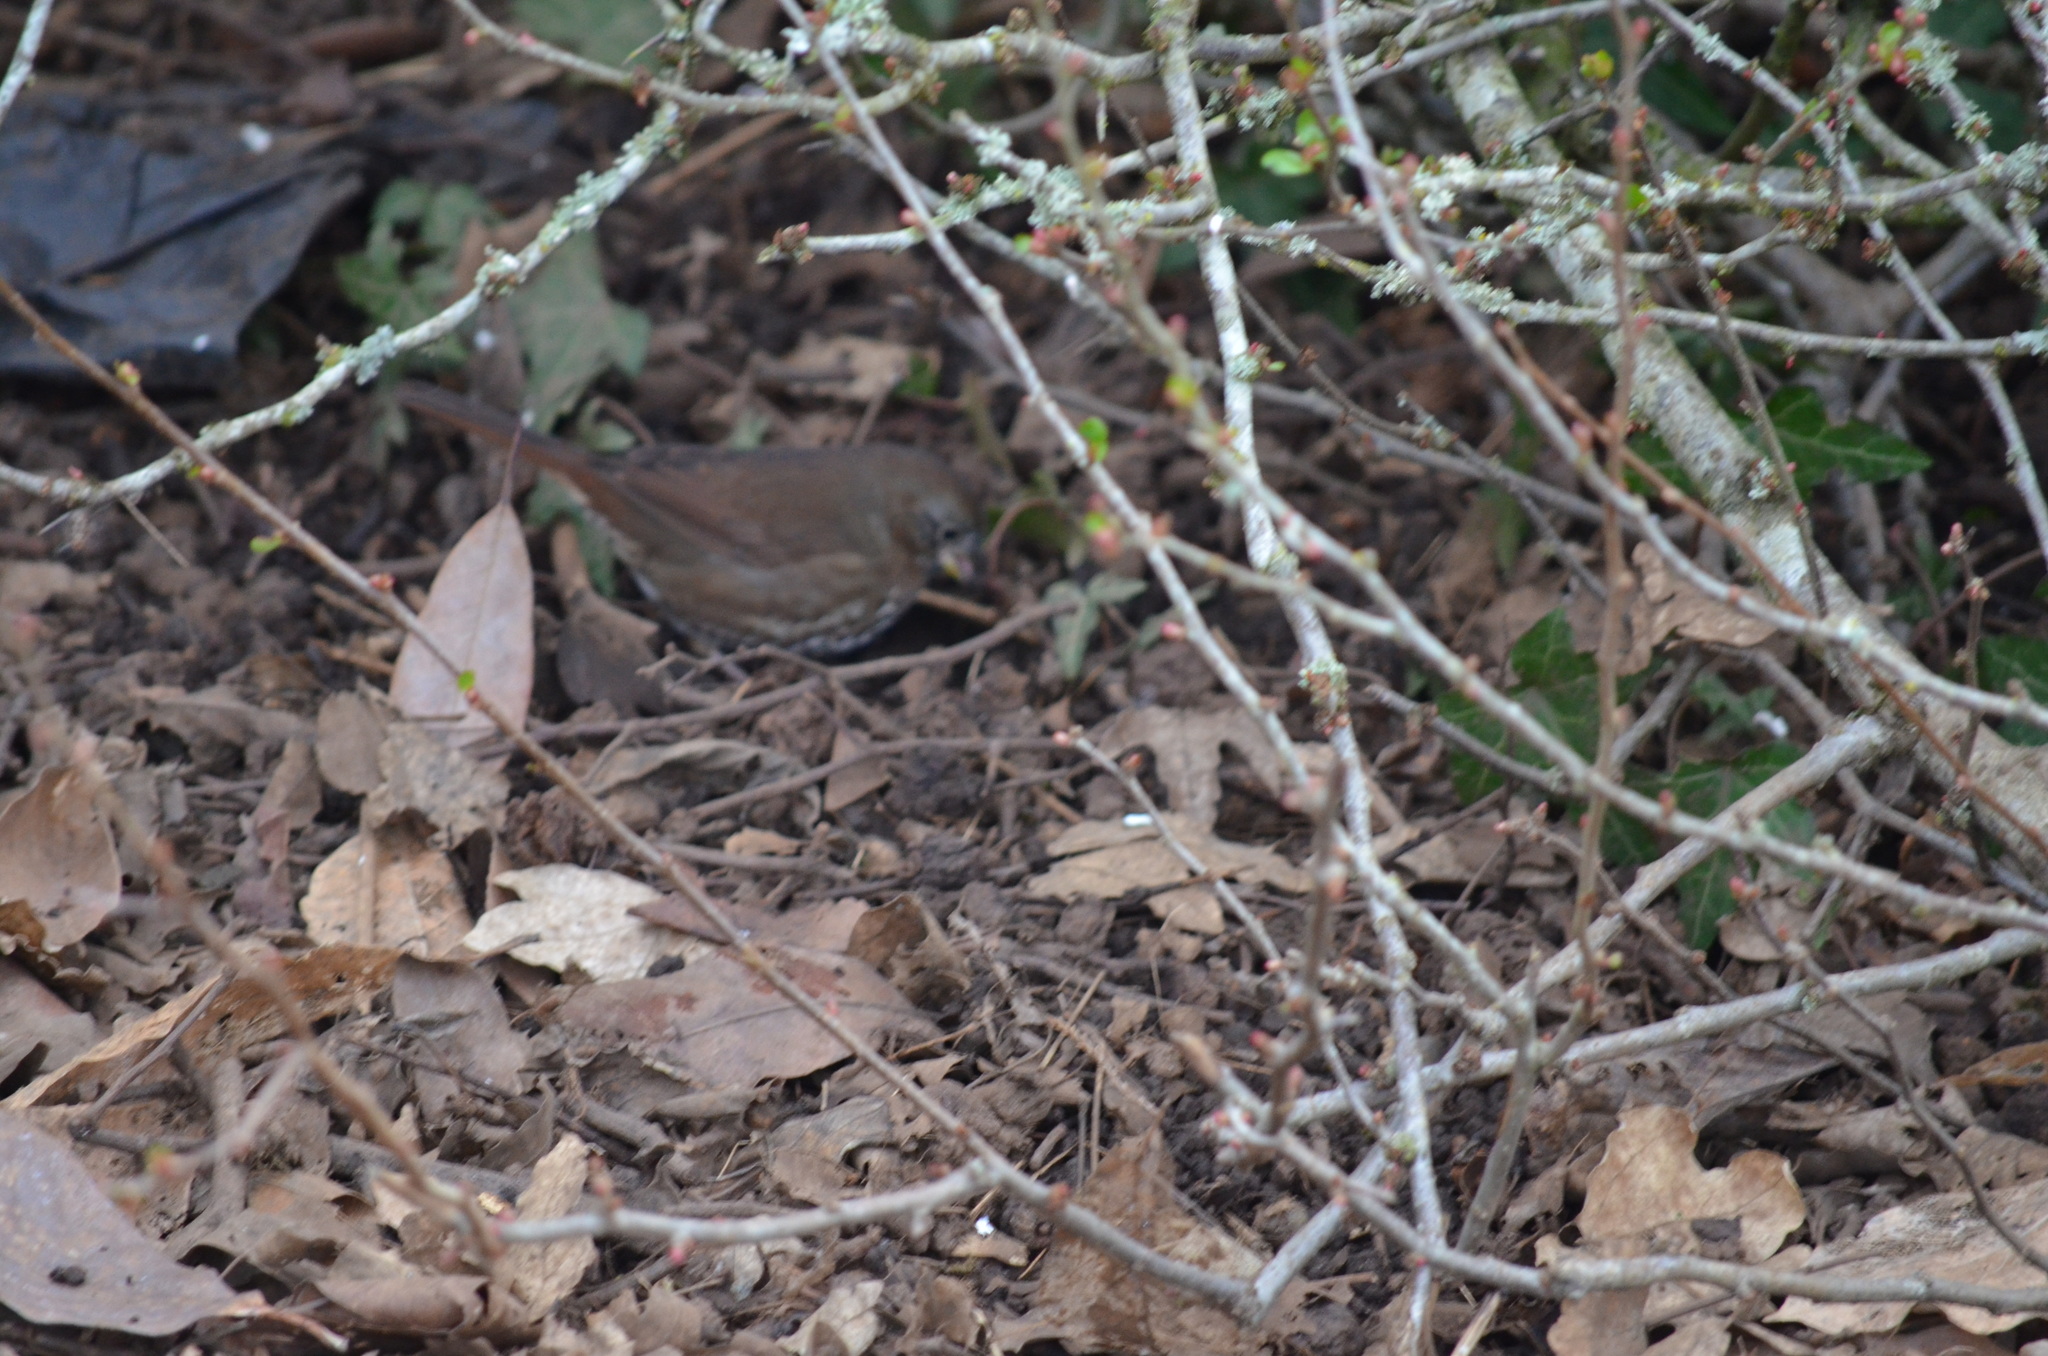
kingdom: Animalia
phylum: Chordata
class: Aves
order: Passeriformes
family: Passerellidae
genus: Passerella
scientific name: Passerella iliaca
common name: Fox sparrow
